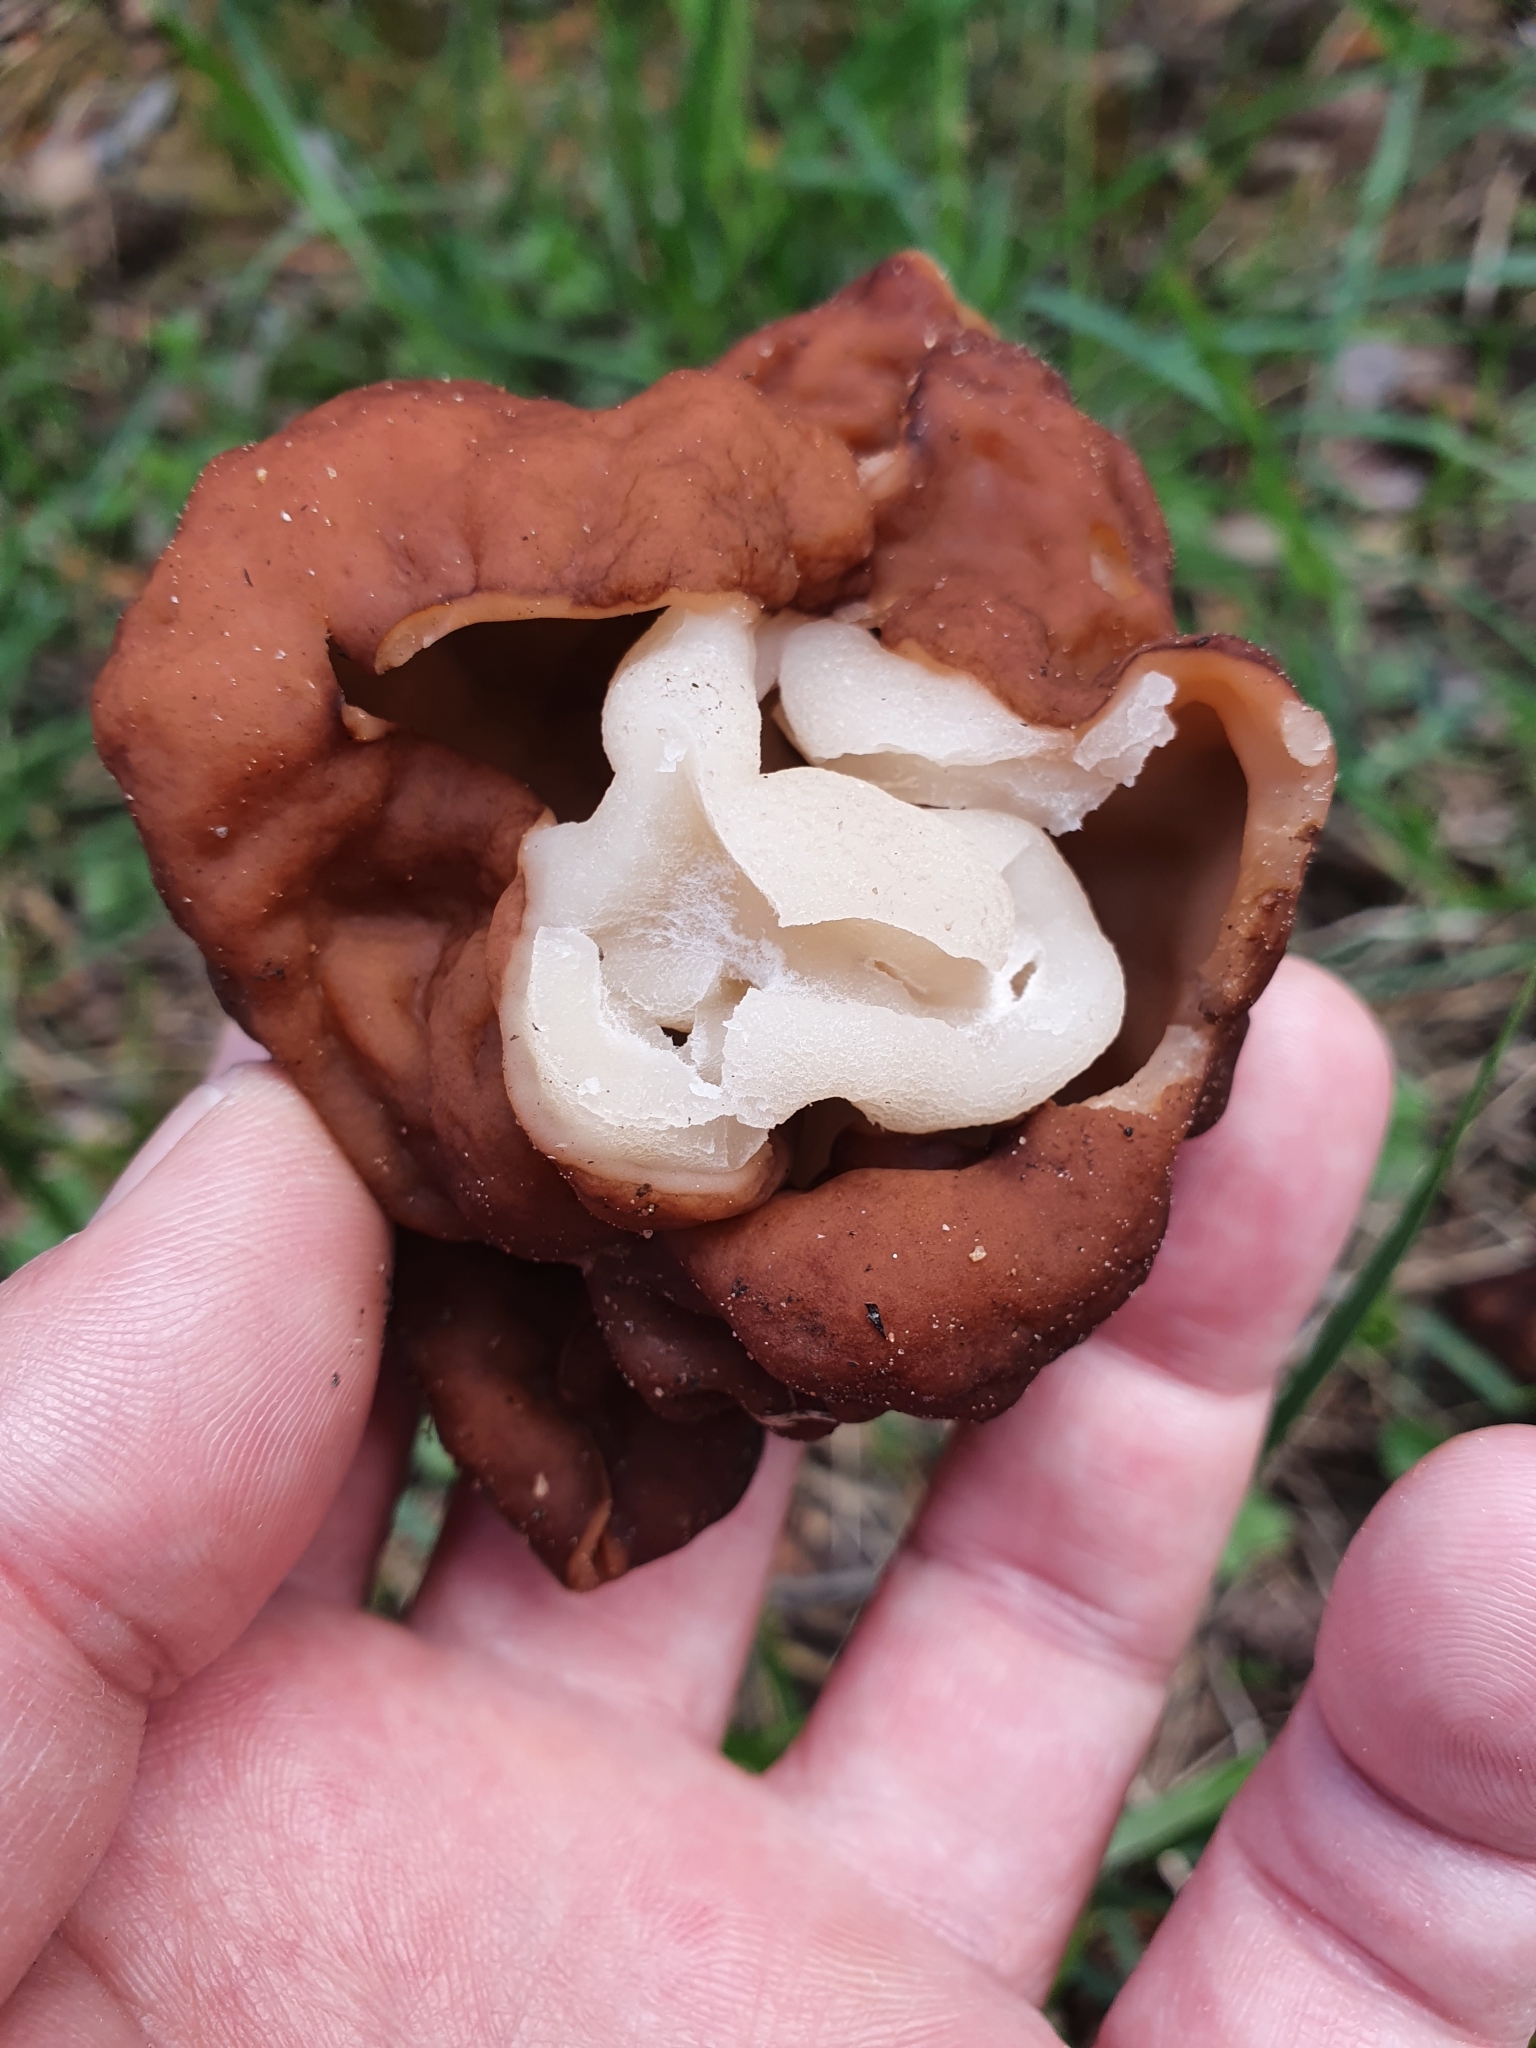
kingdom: Fungi
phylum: Ascomycota
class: Pezizomycetes
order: Pezizales
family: Discinaceae
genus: Gyromitra
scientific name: Gyromitra esculenta
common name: False morel
